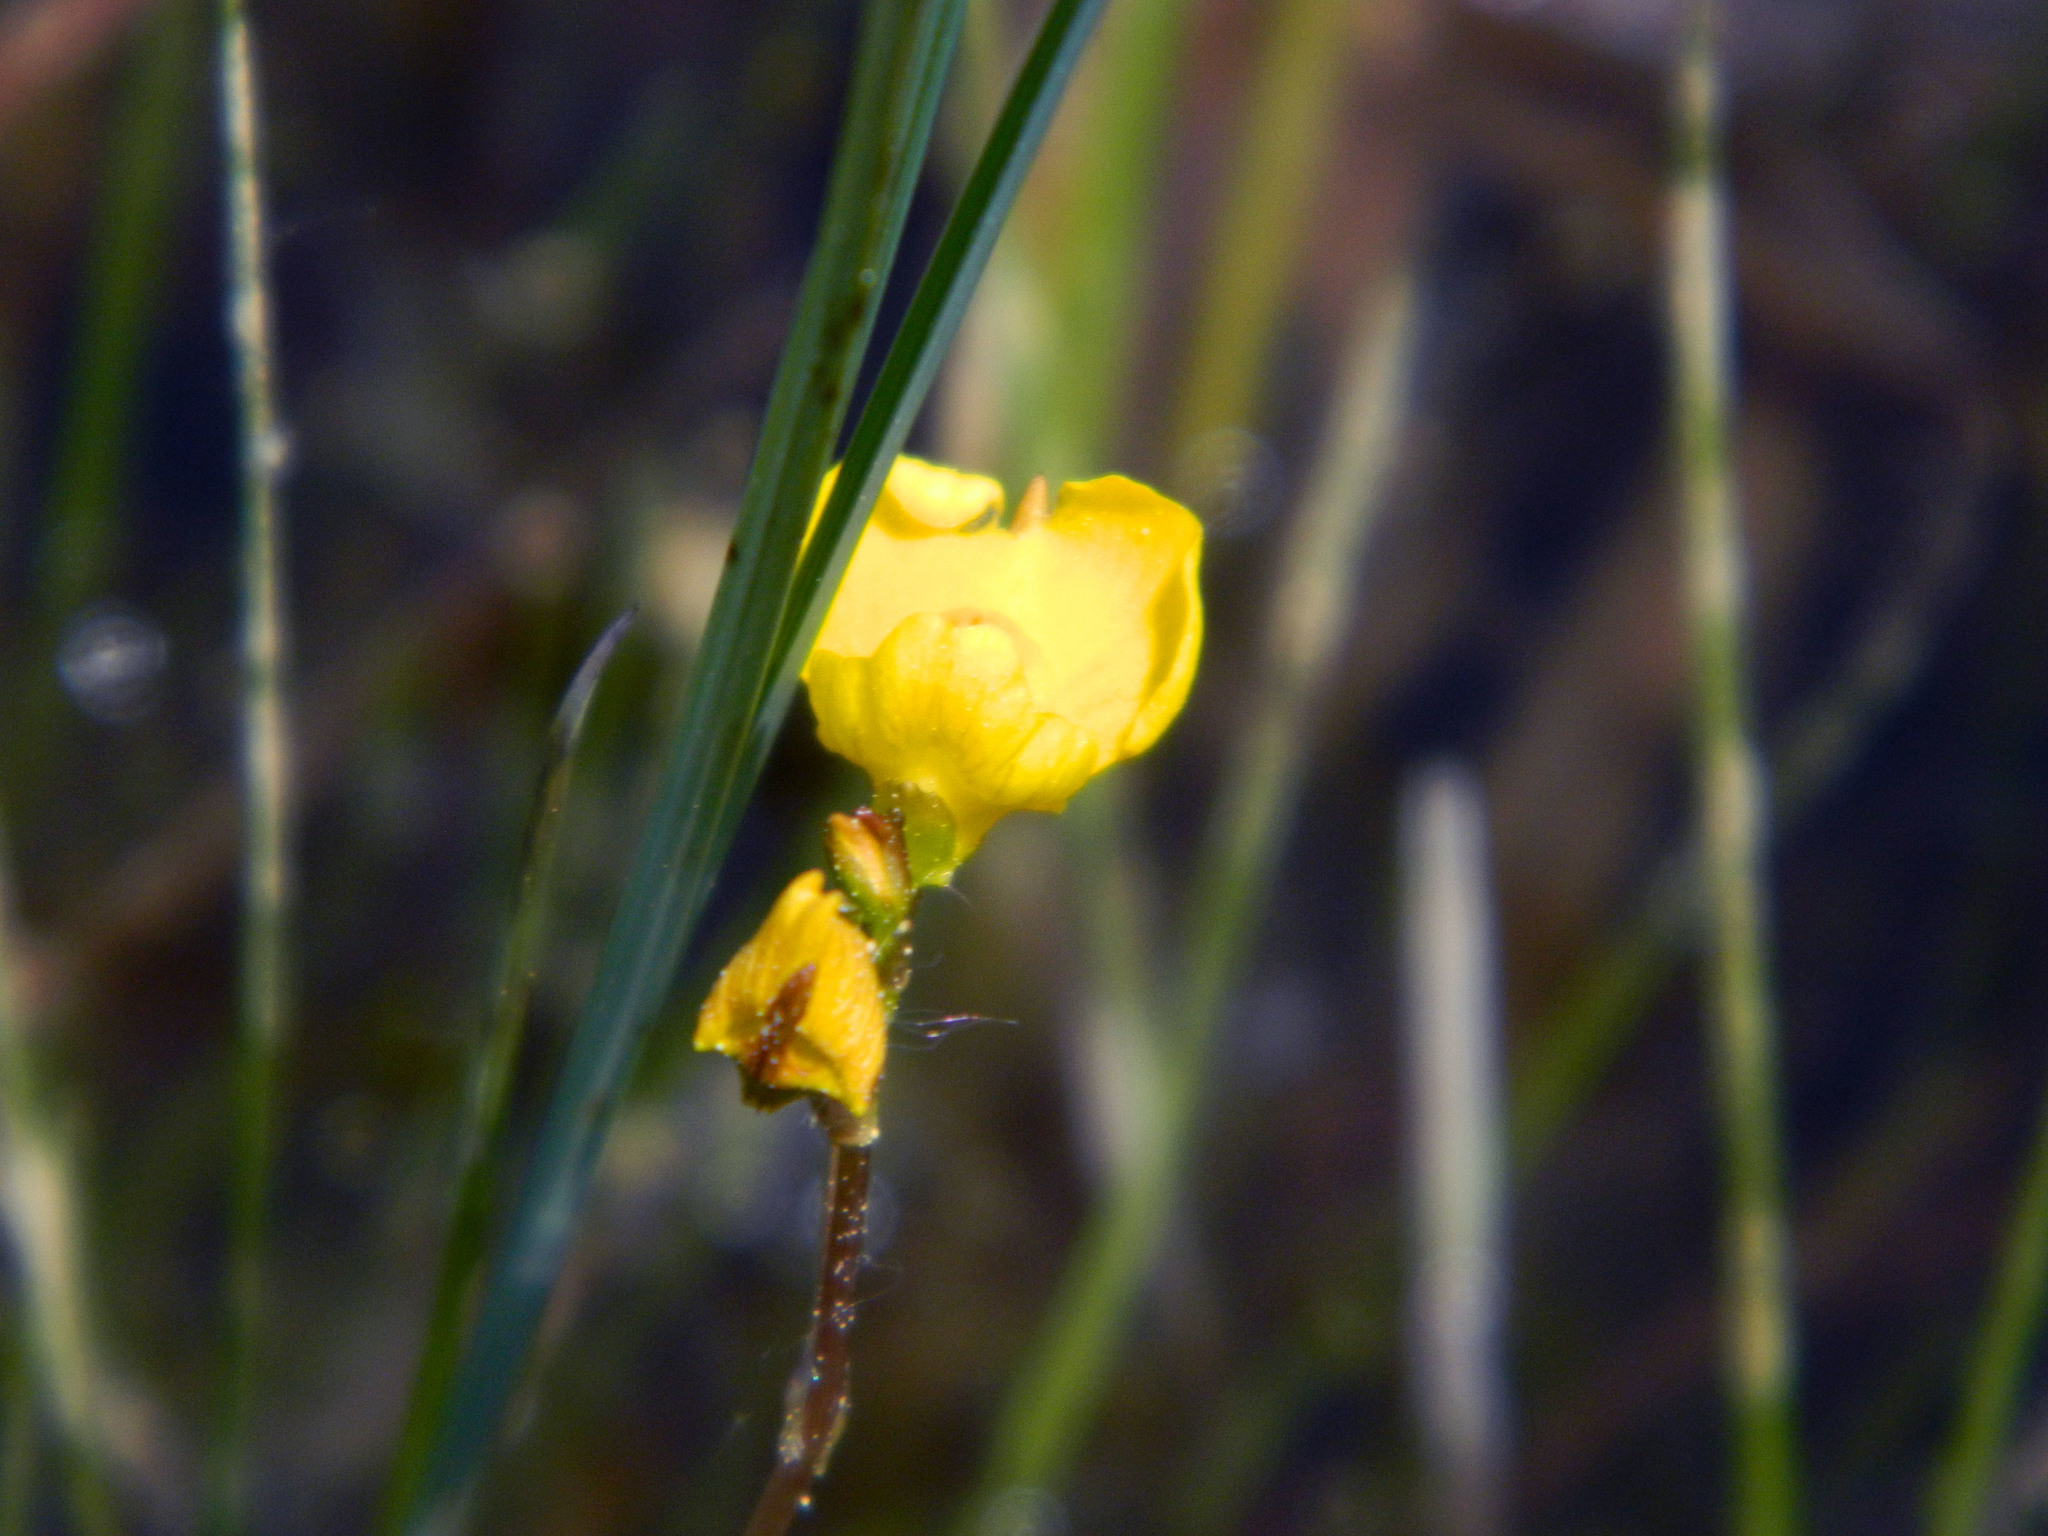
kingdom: Plantae
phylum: Tracheophyta
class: Magnoliopsida
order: Lamiales
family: Lentibulariaceae
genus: Utricularia
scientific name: Utricularia intermedia
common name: Intermediate bladderwort
